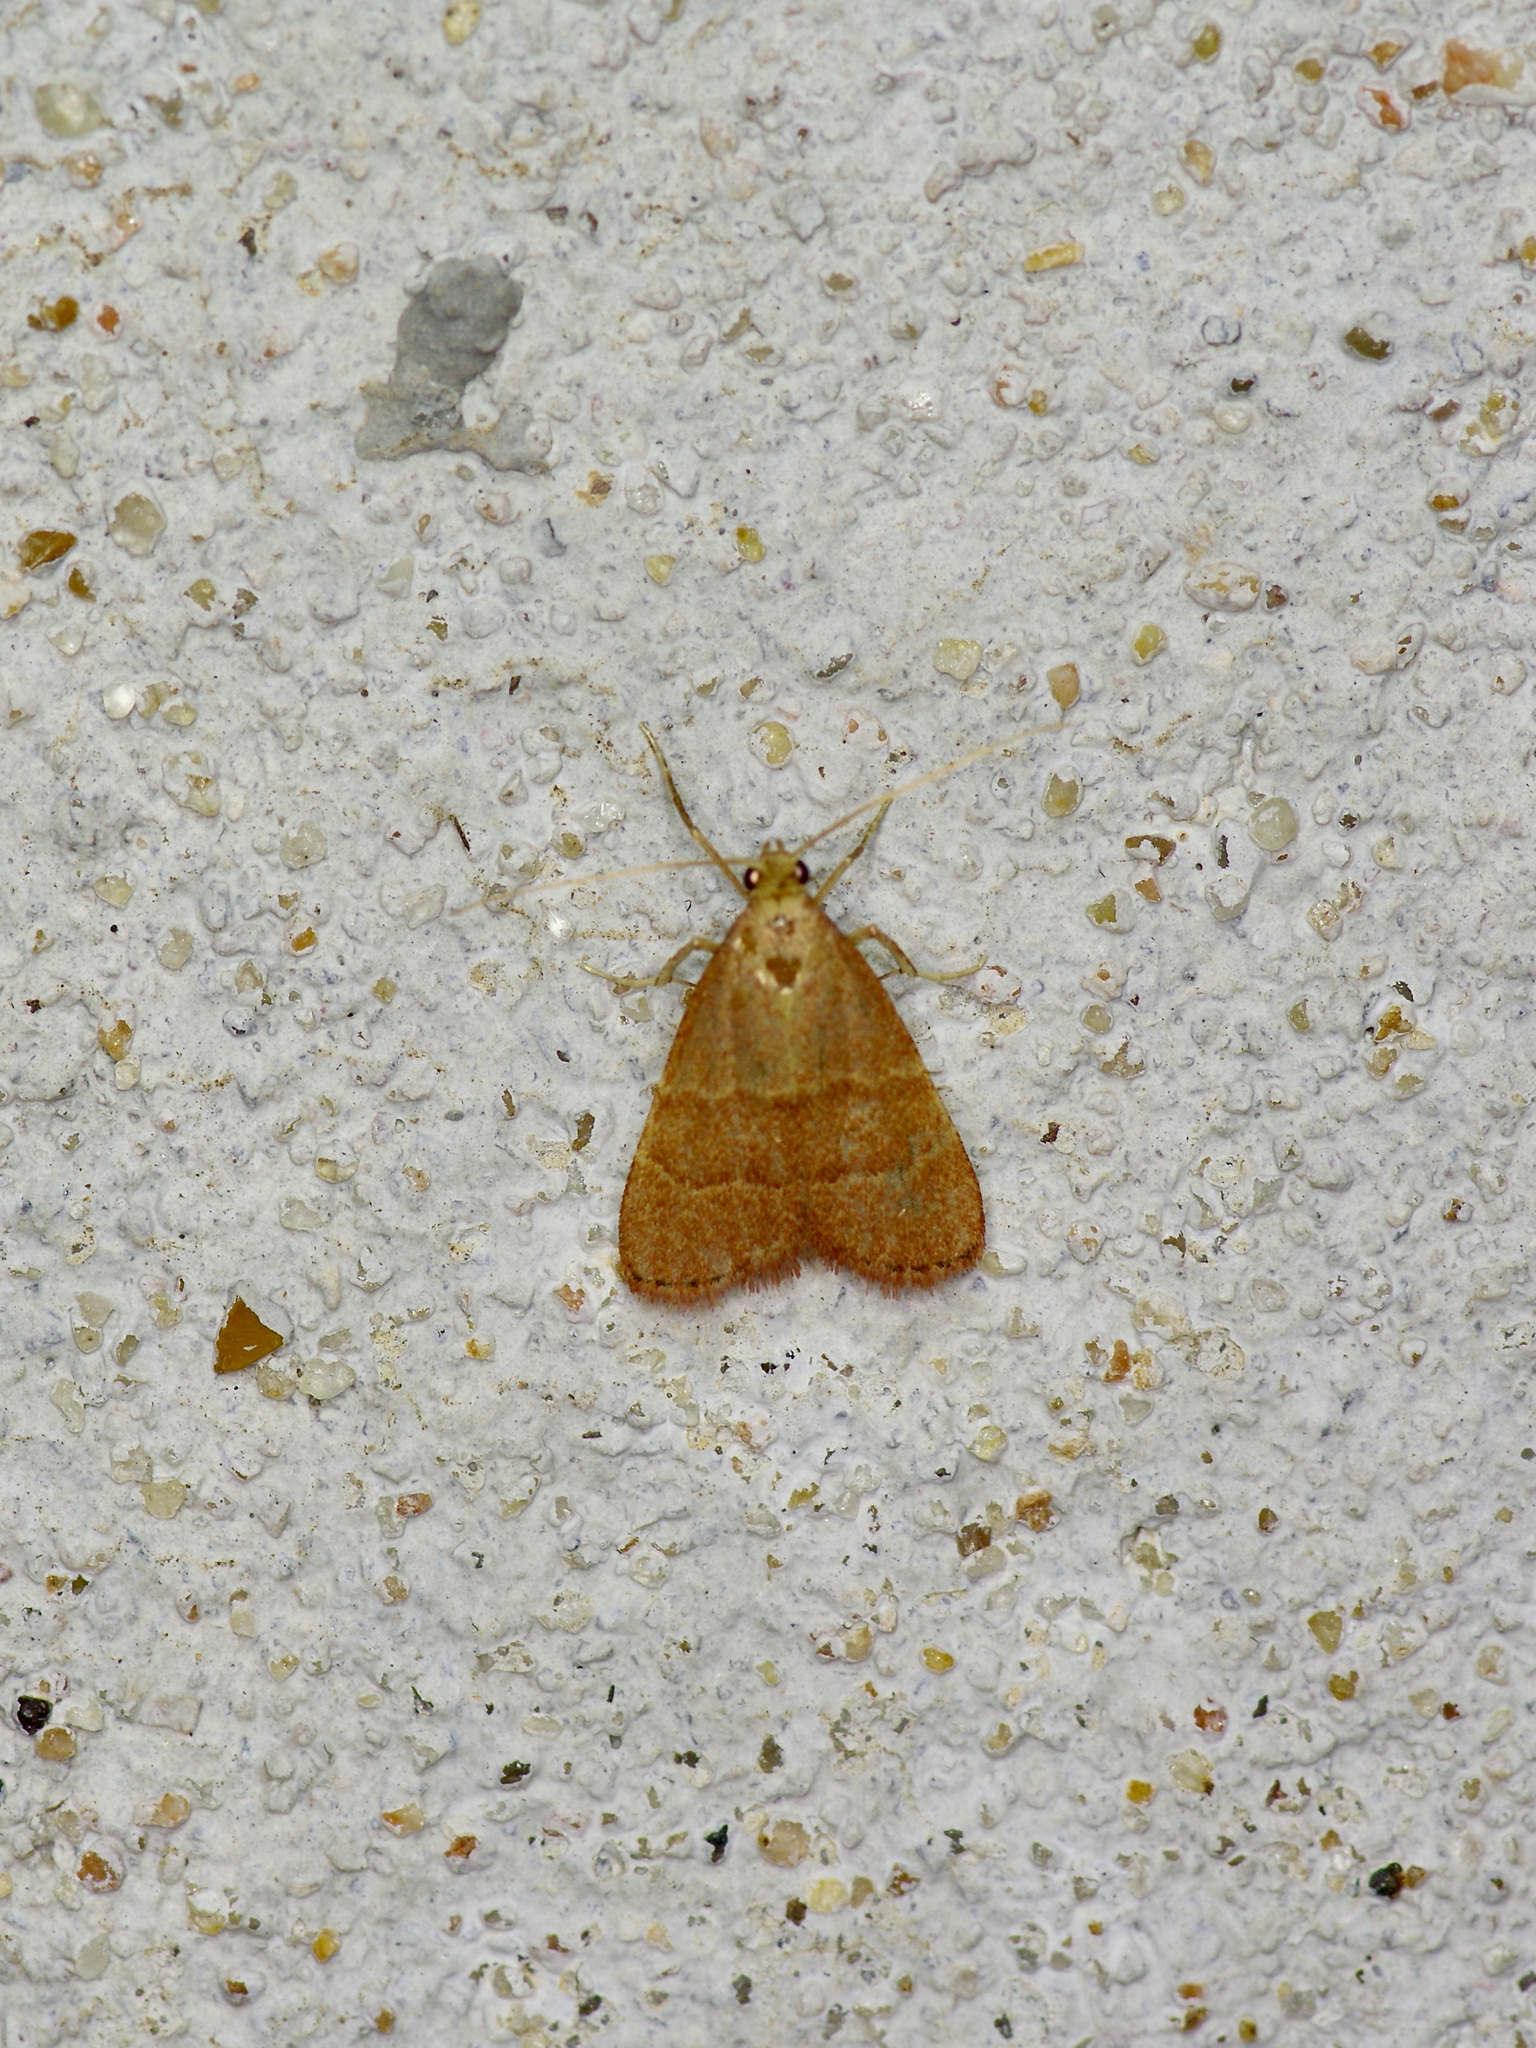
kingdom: Animalia
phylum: Arthropoda
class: Insecta
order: Lepidoptera
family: Pyralidae
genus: Arta
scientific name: Arta epicoenalis
